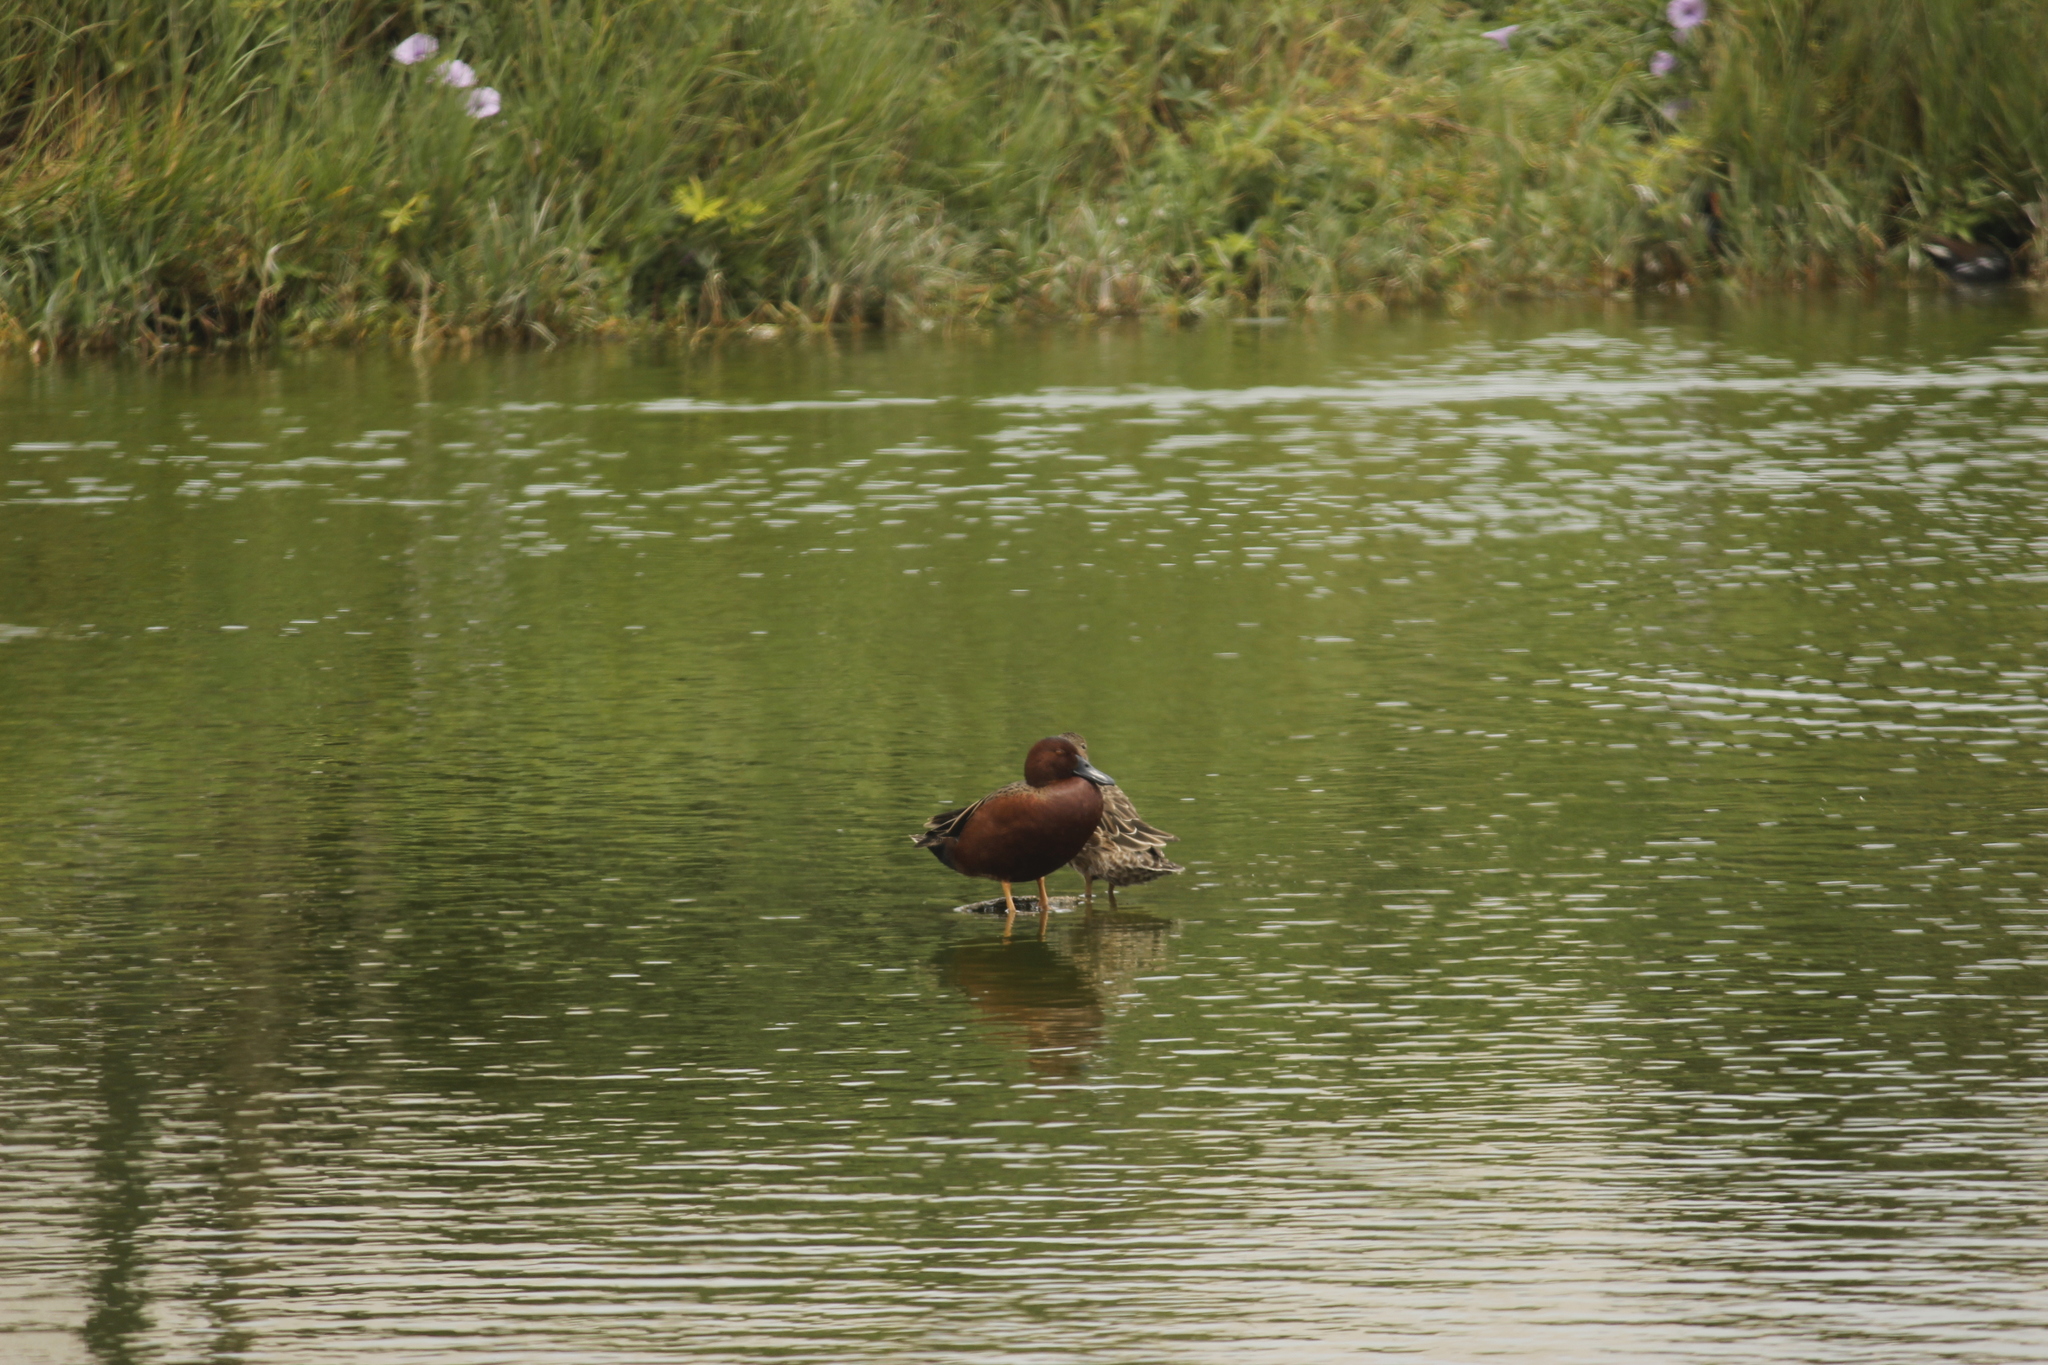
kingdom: Animalia
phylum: Chordata
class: Aves
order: Anseriformes
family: Anatidae
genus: Spatula
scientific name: Spatula cyanoptera
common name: Cinnamon teal
